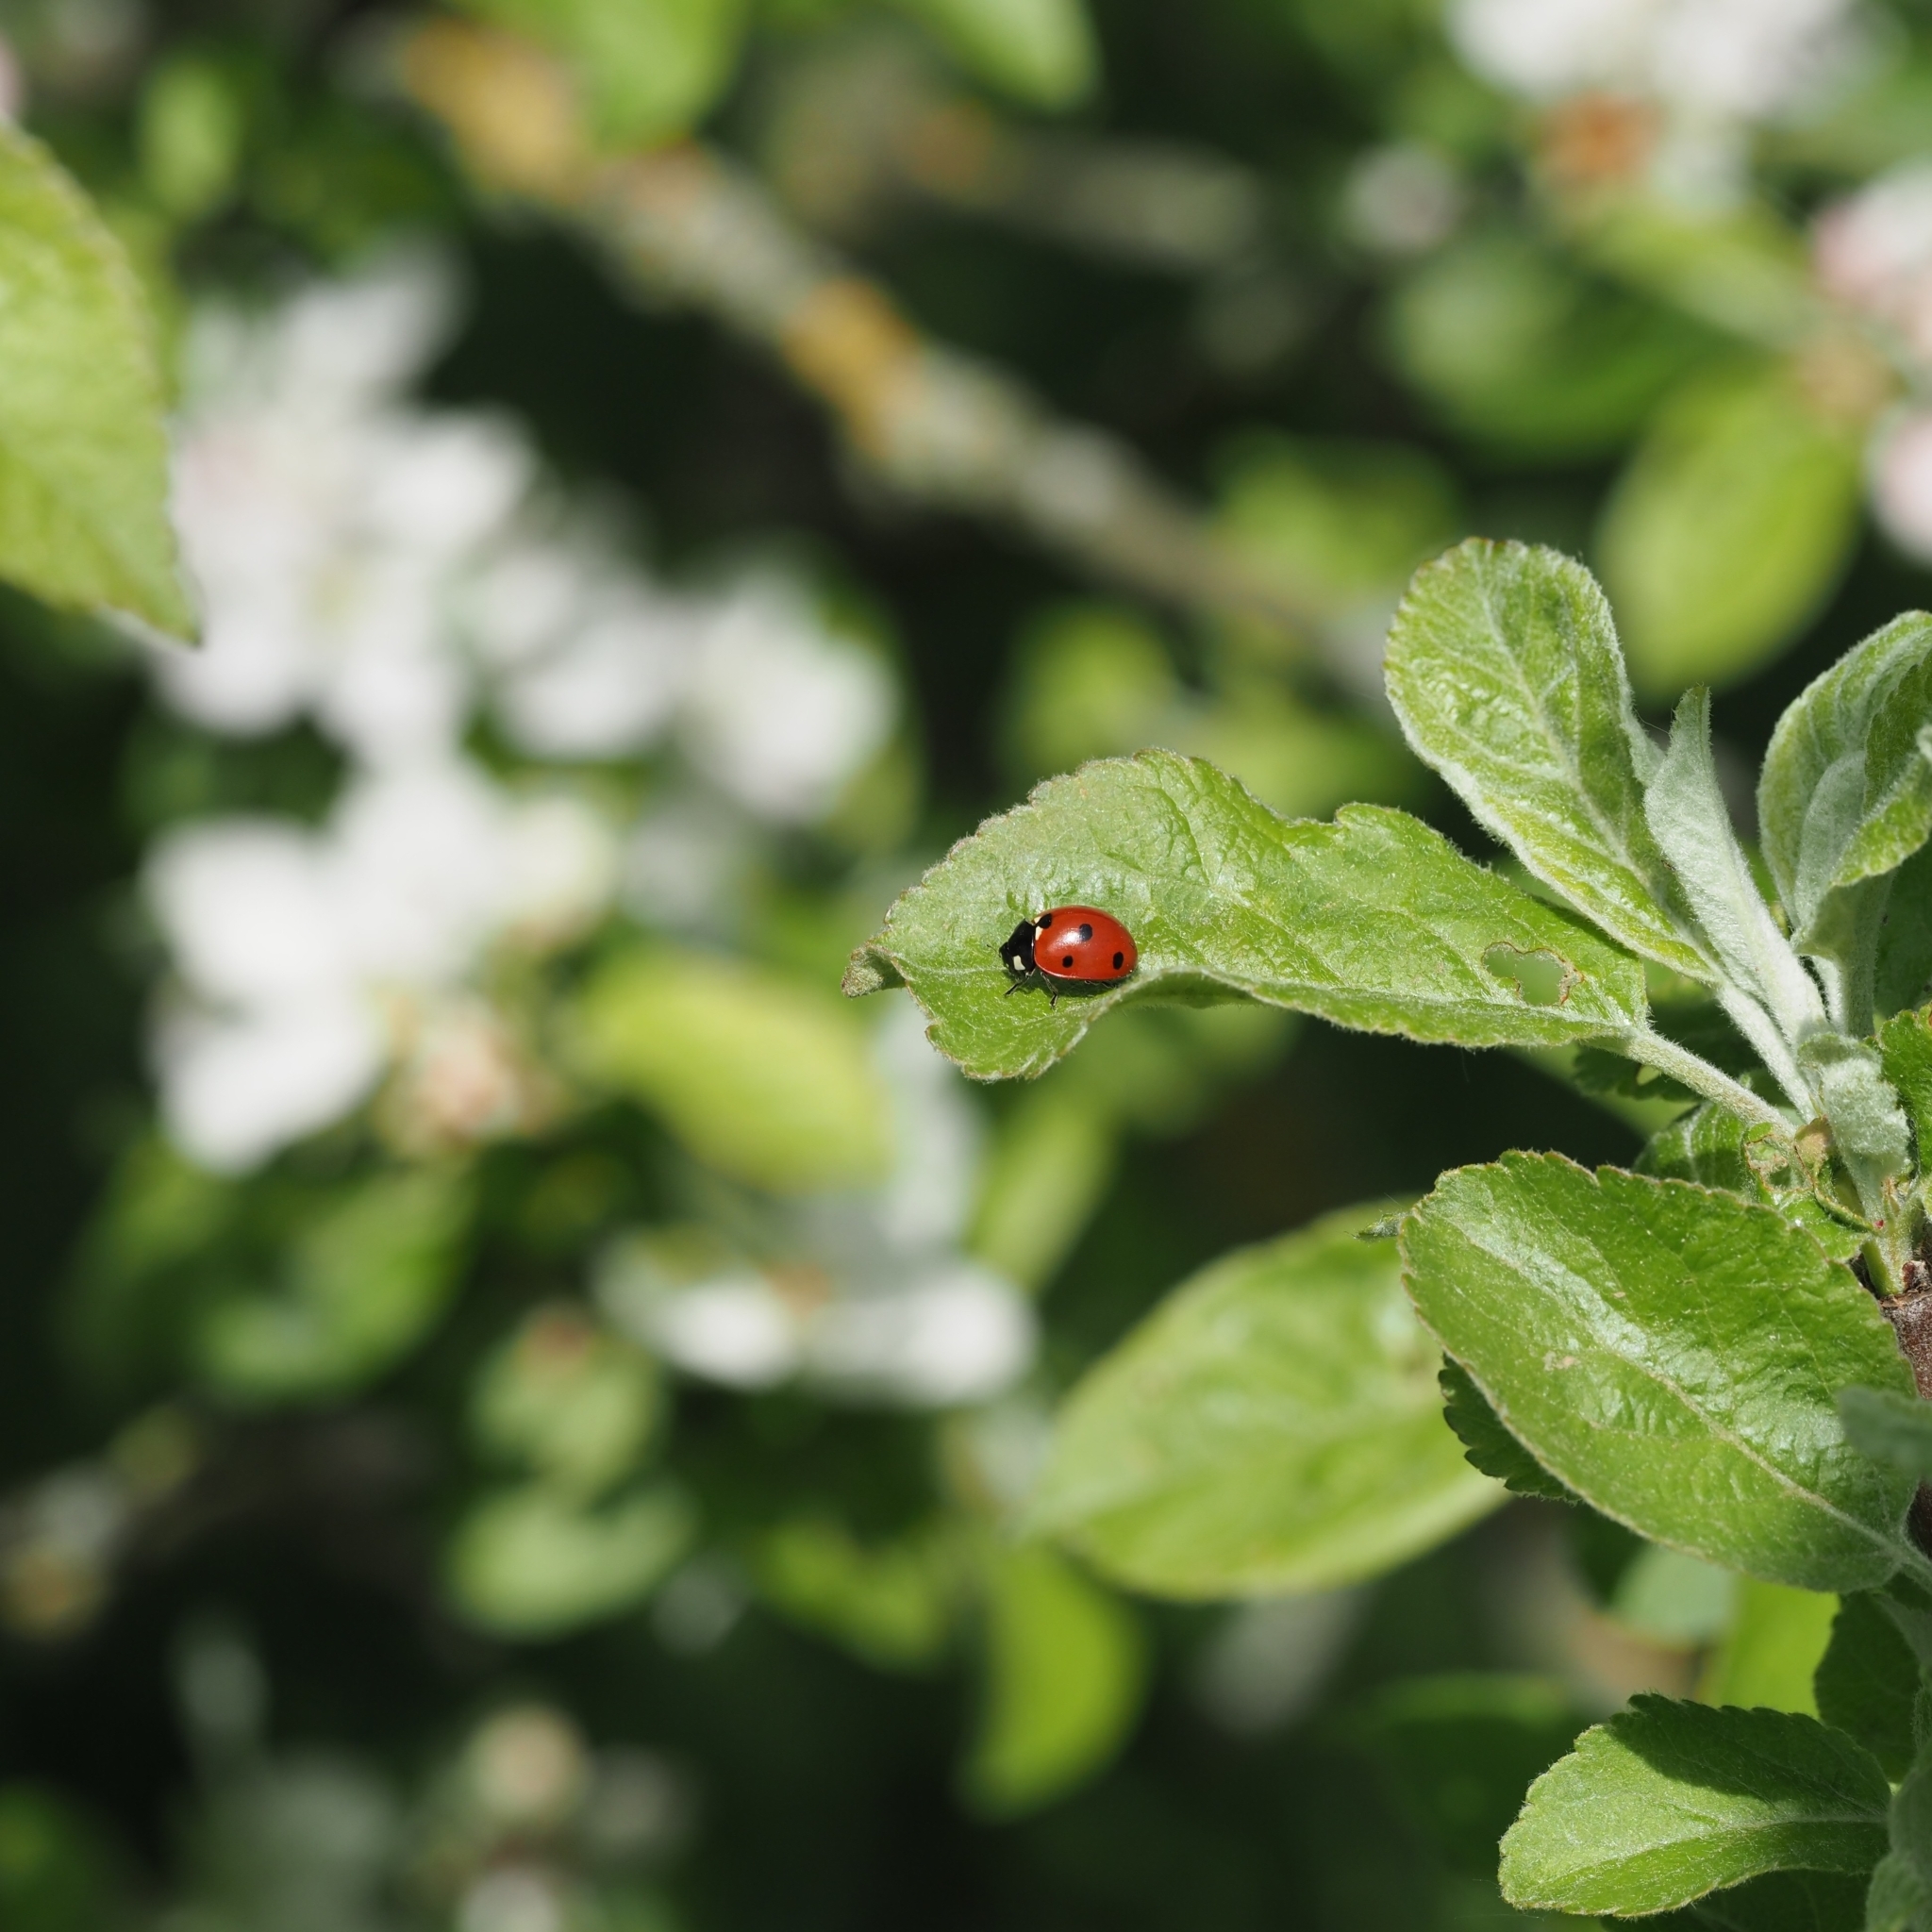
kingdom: Animalia
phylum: Arthropoda
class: Insecta
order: Coleoptera
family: Coccinellidae
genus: Coccinella
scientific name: Coccinella septempunctata
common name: Sevenspotted lady beetle
